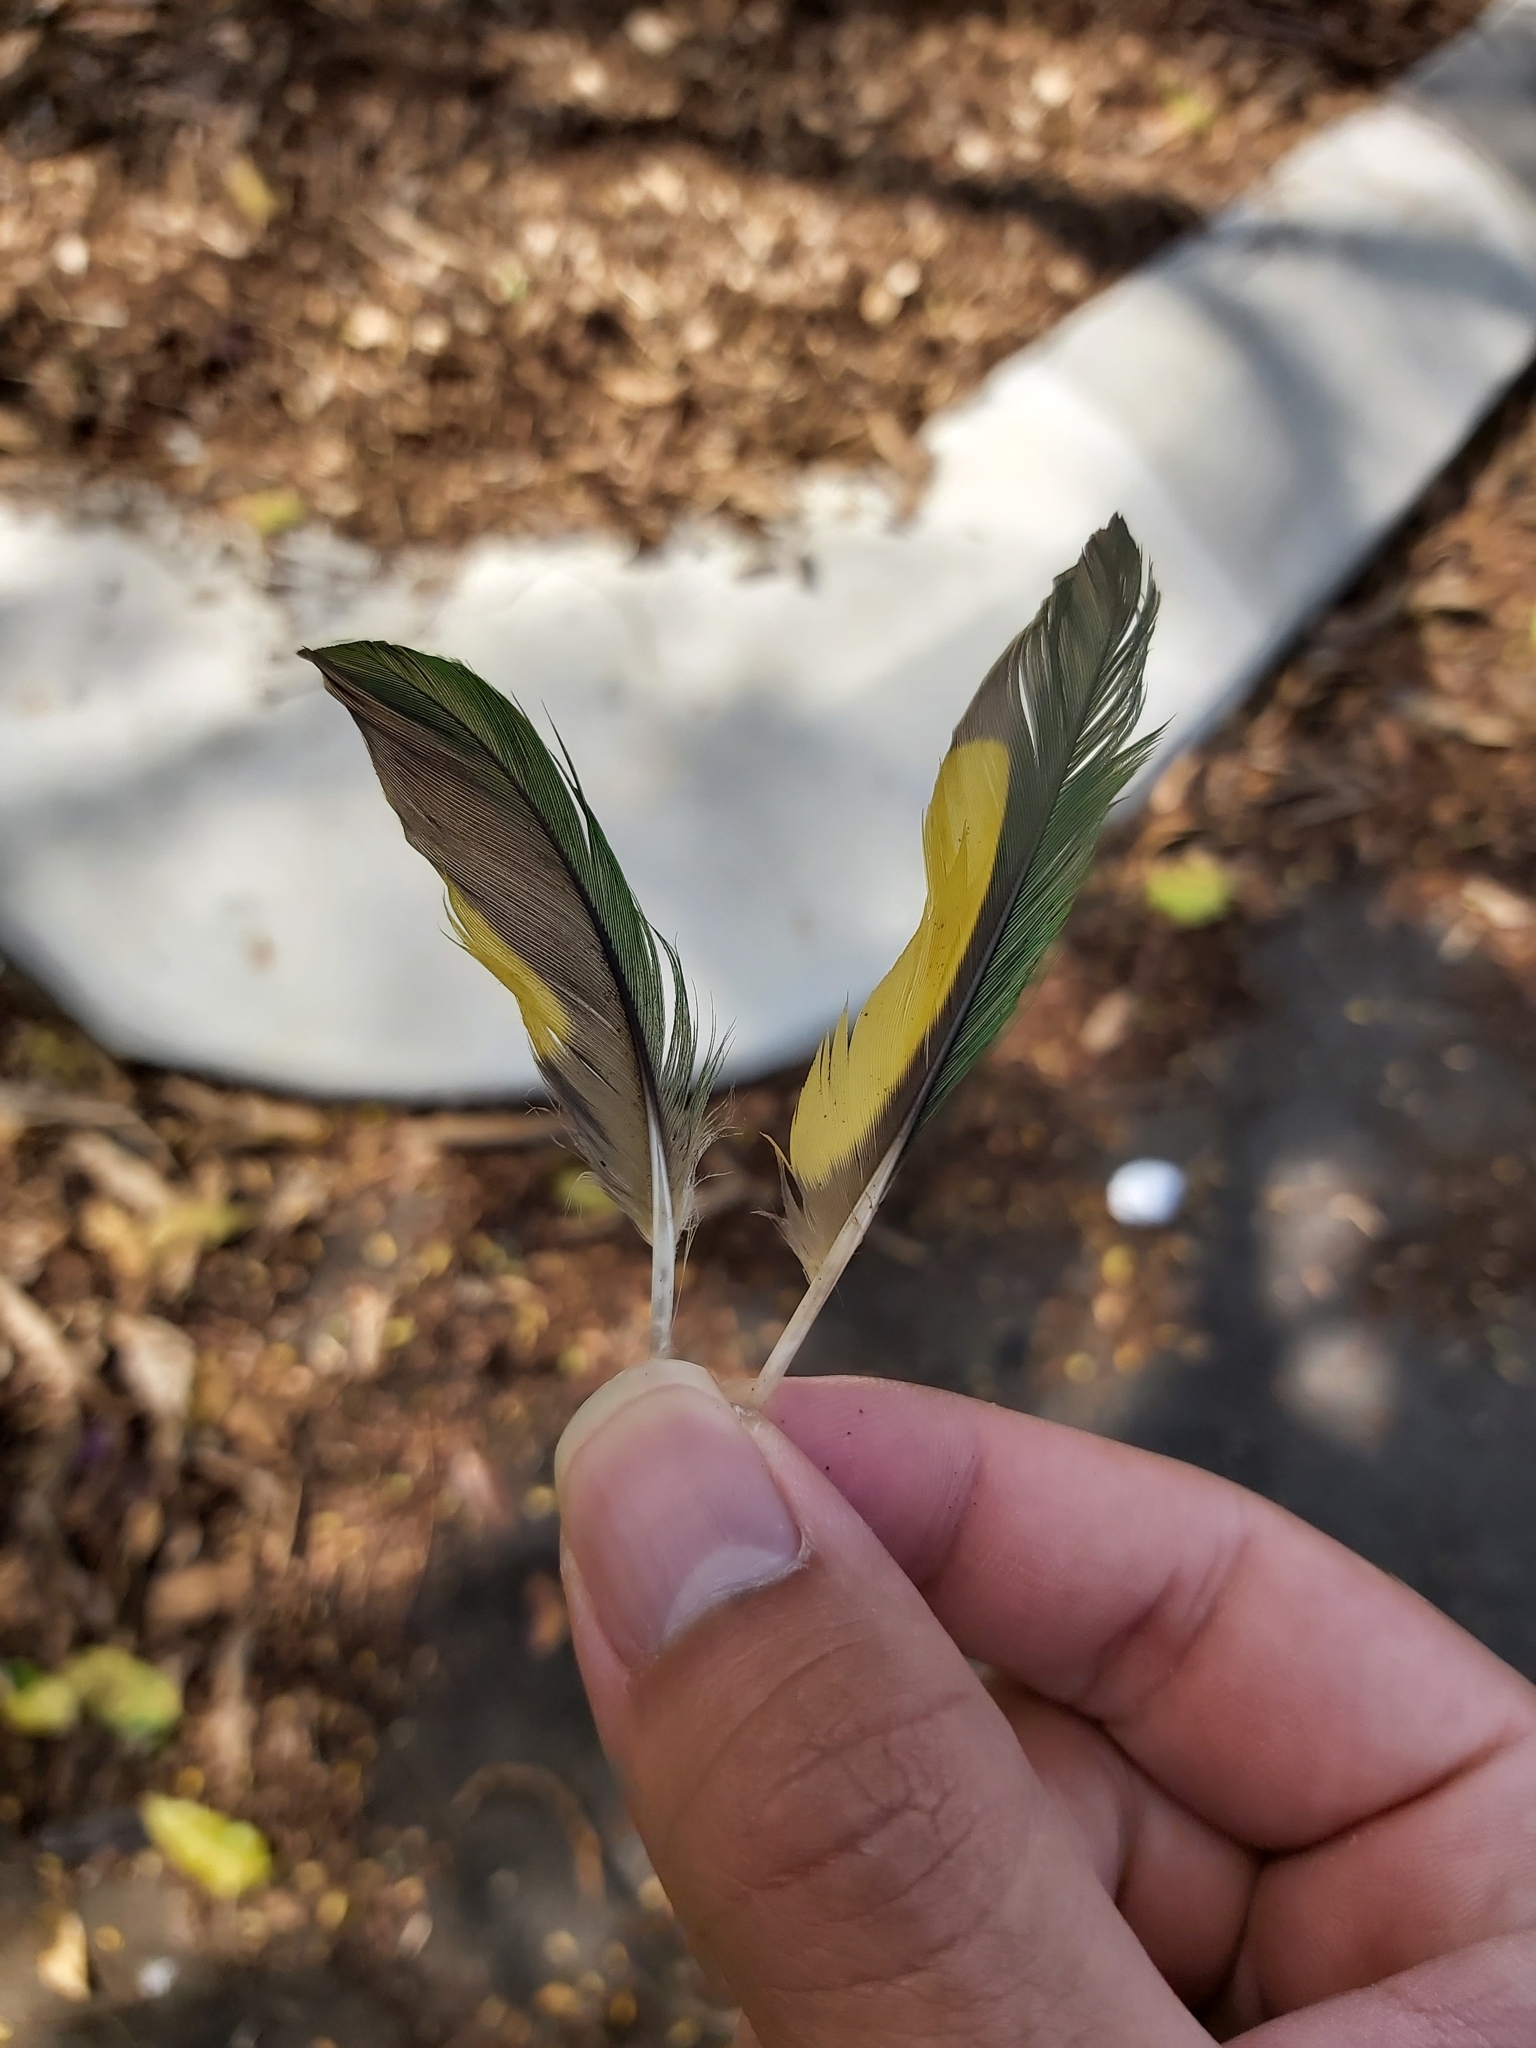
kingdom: Animalia
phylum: Chordata
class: Aves
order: Psittaciformes
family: Psittacidae
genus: Trichoglossus
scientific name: Trichoglossus haematodus
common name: Coconut lorikeet
